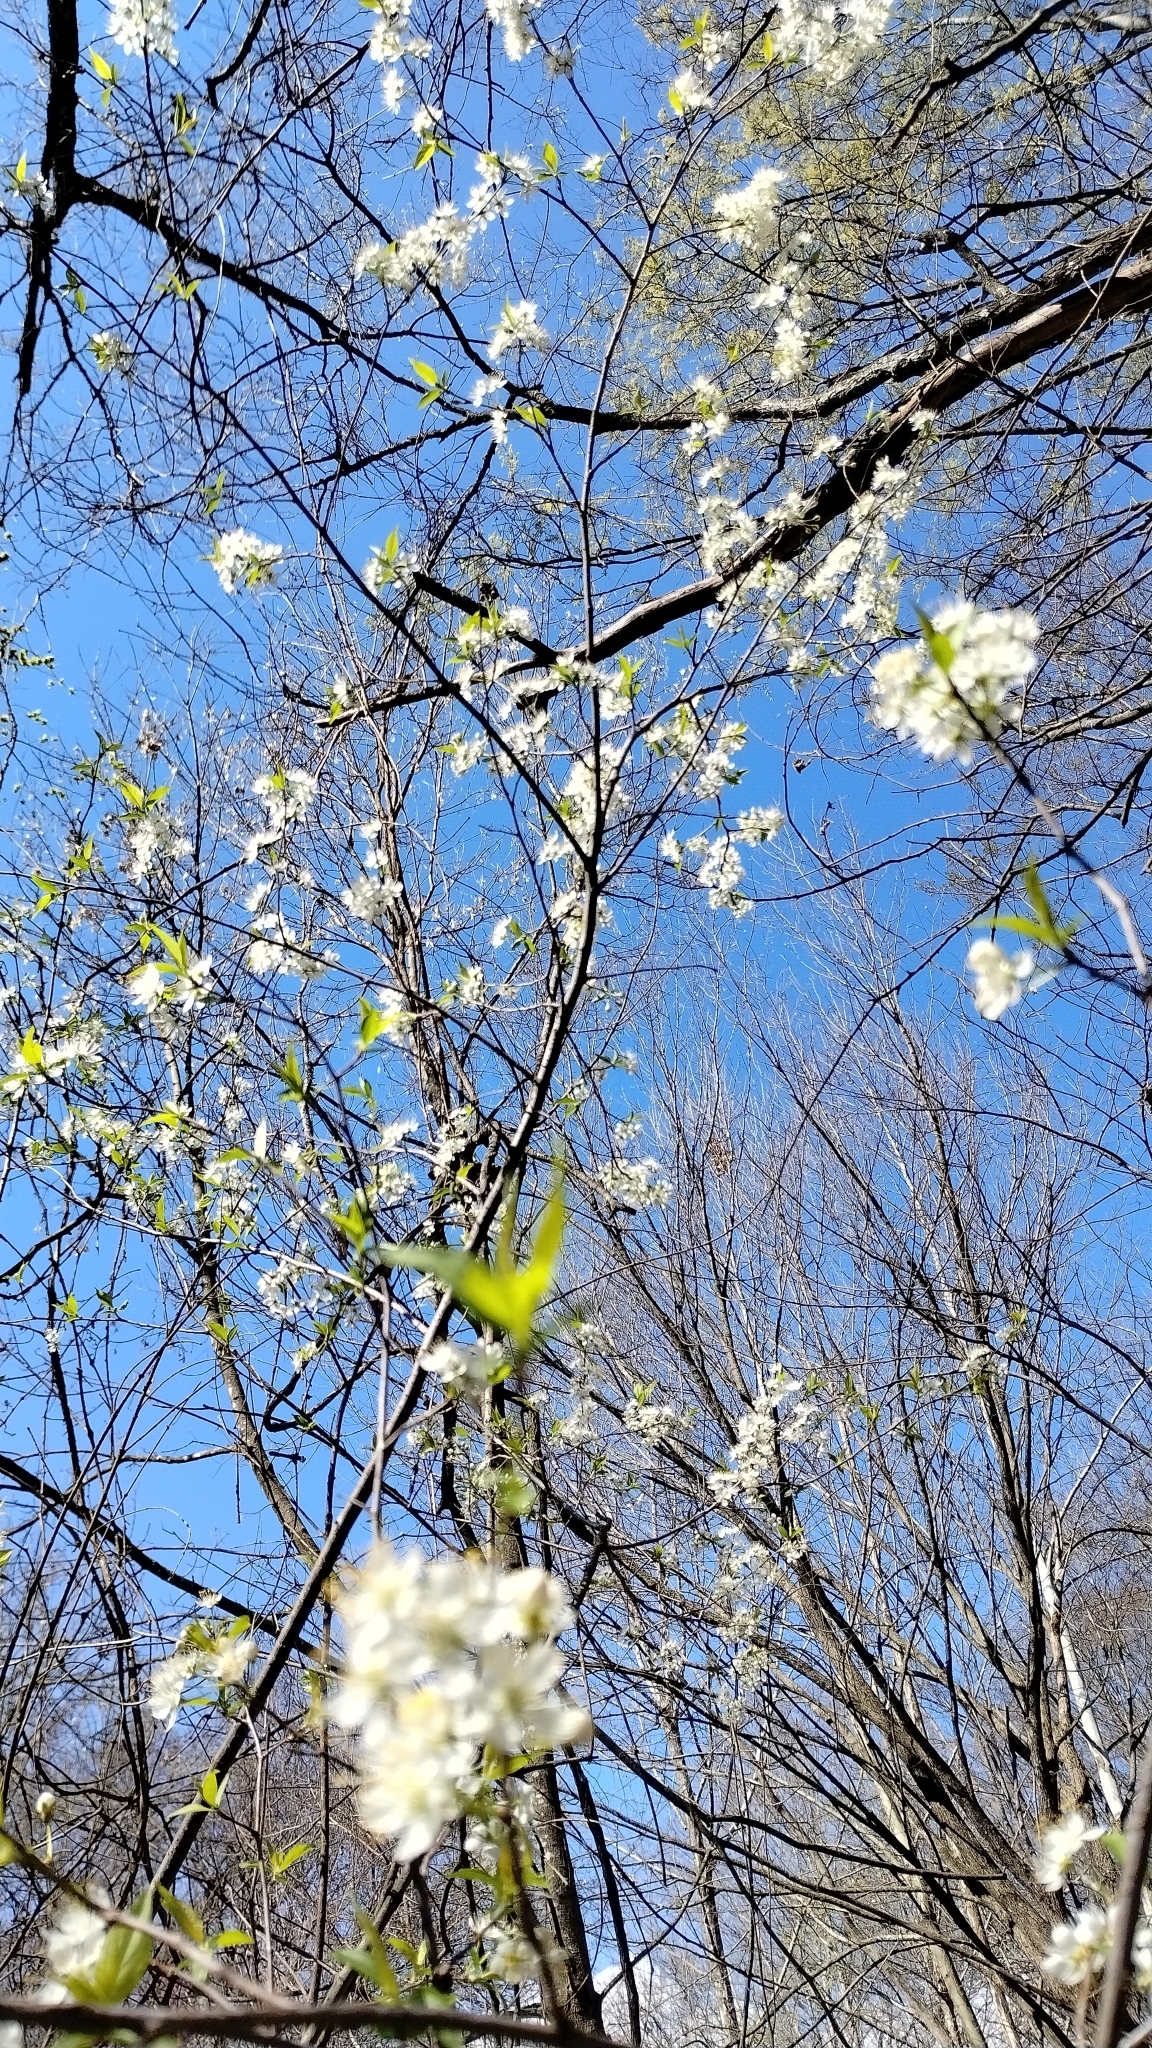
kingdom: Plantae
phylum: Tracheophyta
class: Magnoliopsida
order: Rosales
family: Rosaceae
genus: Prunus
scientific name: Prunus mexicana
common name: Mexican plum
